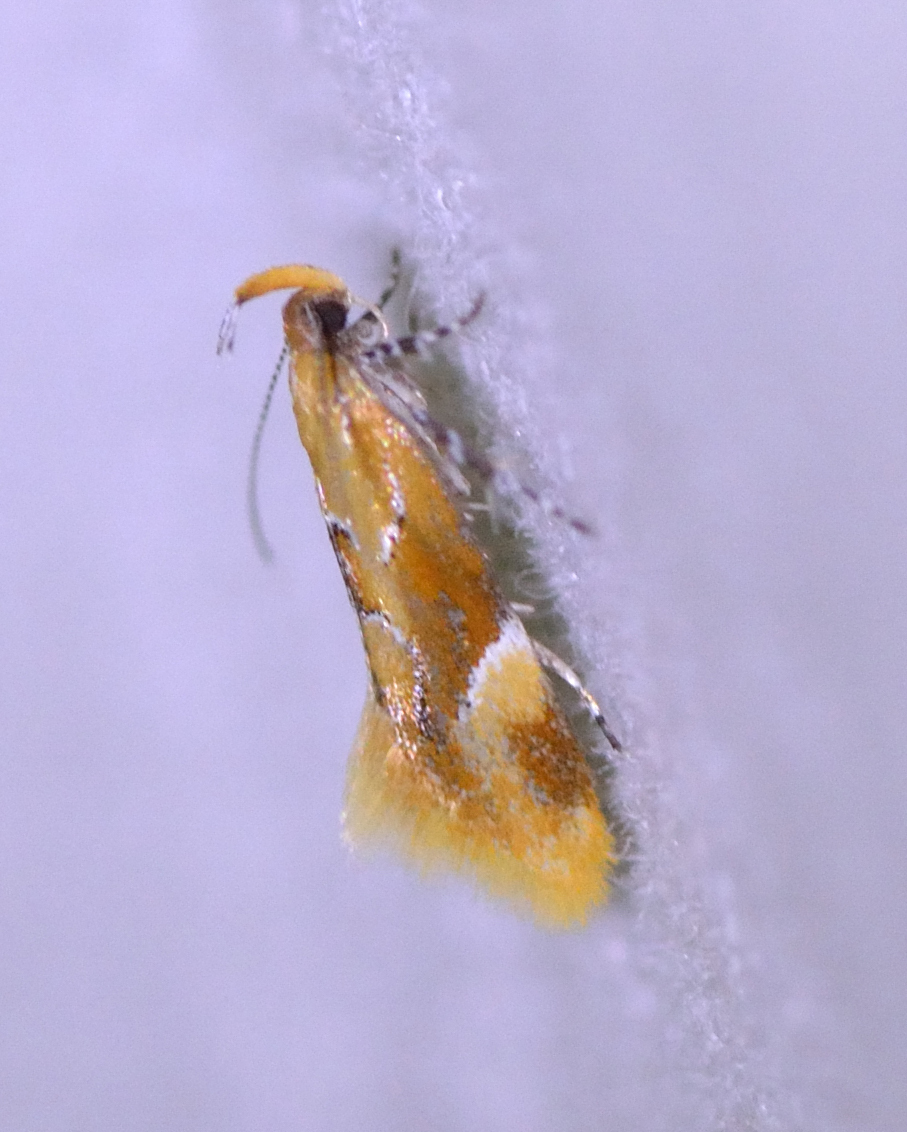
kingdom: Animalia
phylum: Arthropoda
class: Insecta
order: Lepidoptera
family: Oecophoridae
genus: Callima
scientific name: Callima formosella
